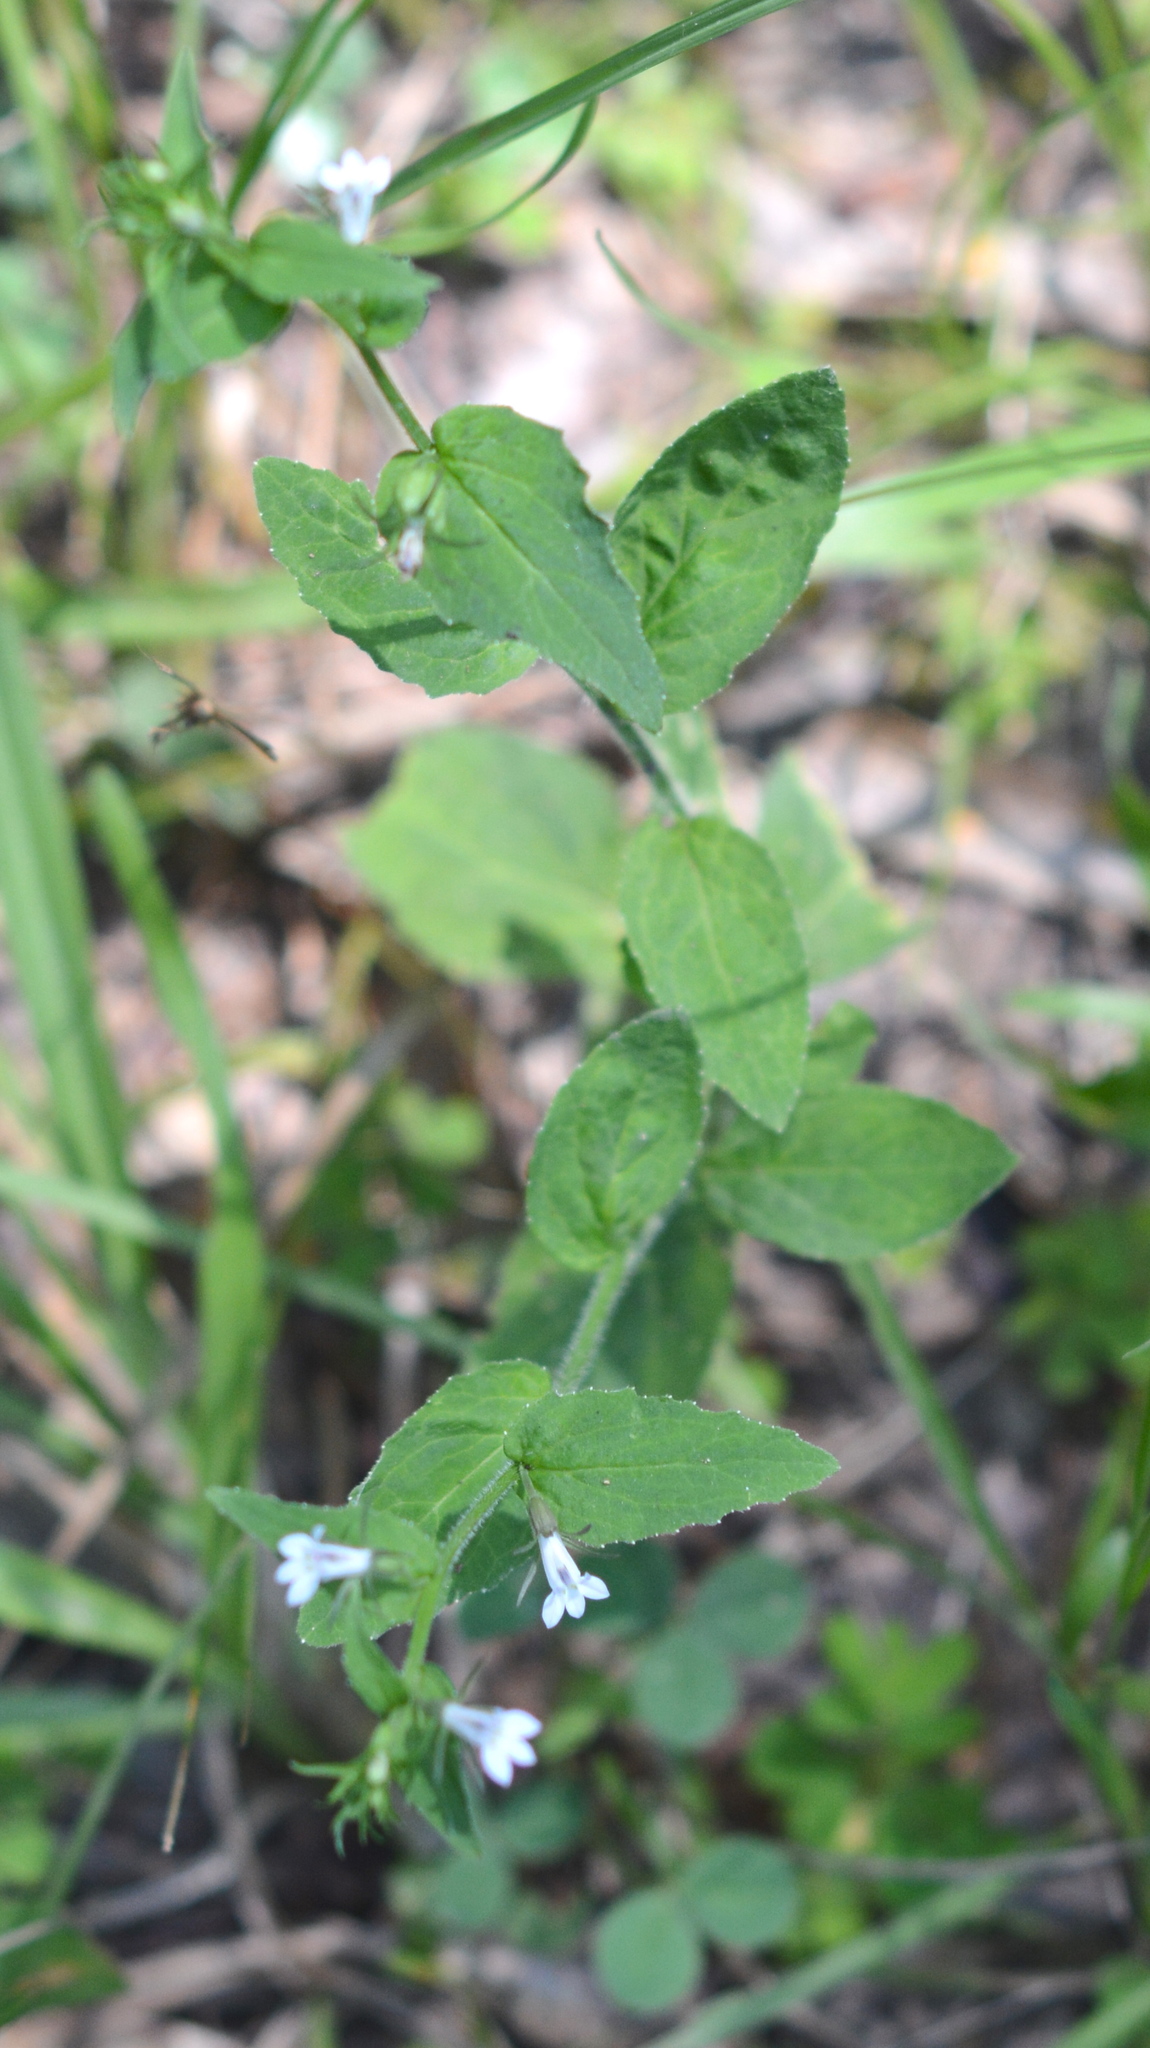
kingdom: Plantae
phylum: Tracheophyta
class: Magnoliopsida
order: Asterales
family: Campanulaceae
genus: Lobelia
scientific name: Lobelia inflata
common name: Indian tobacco
